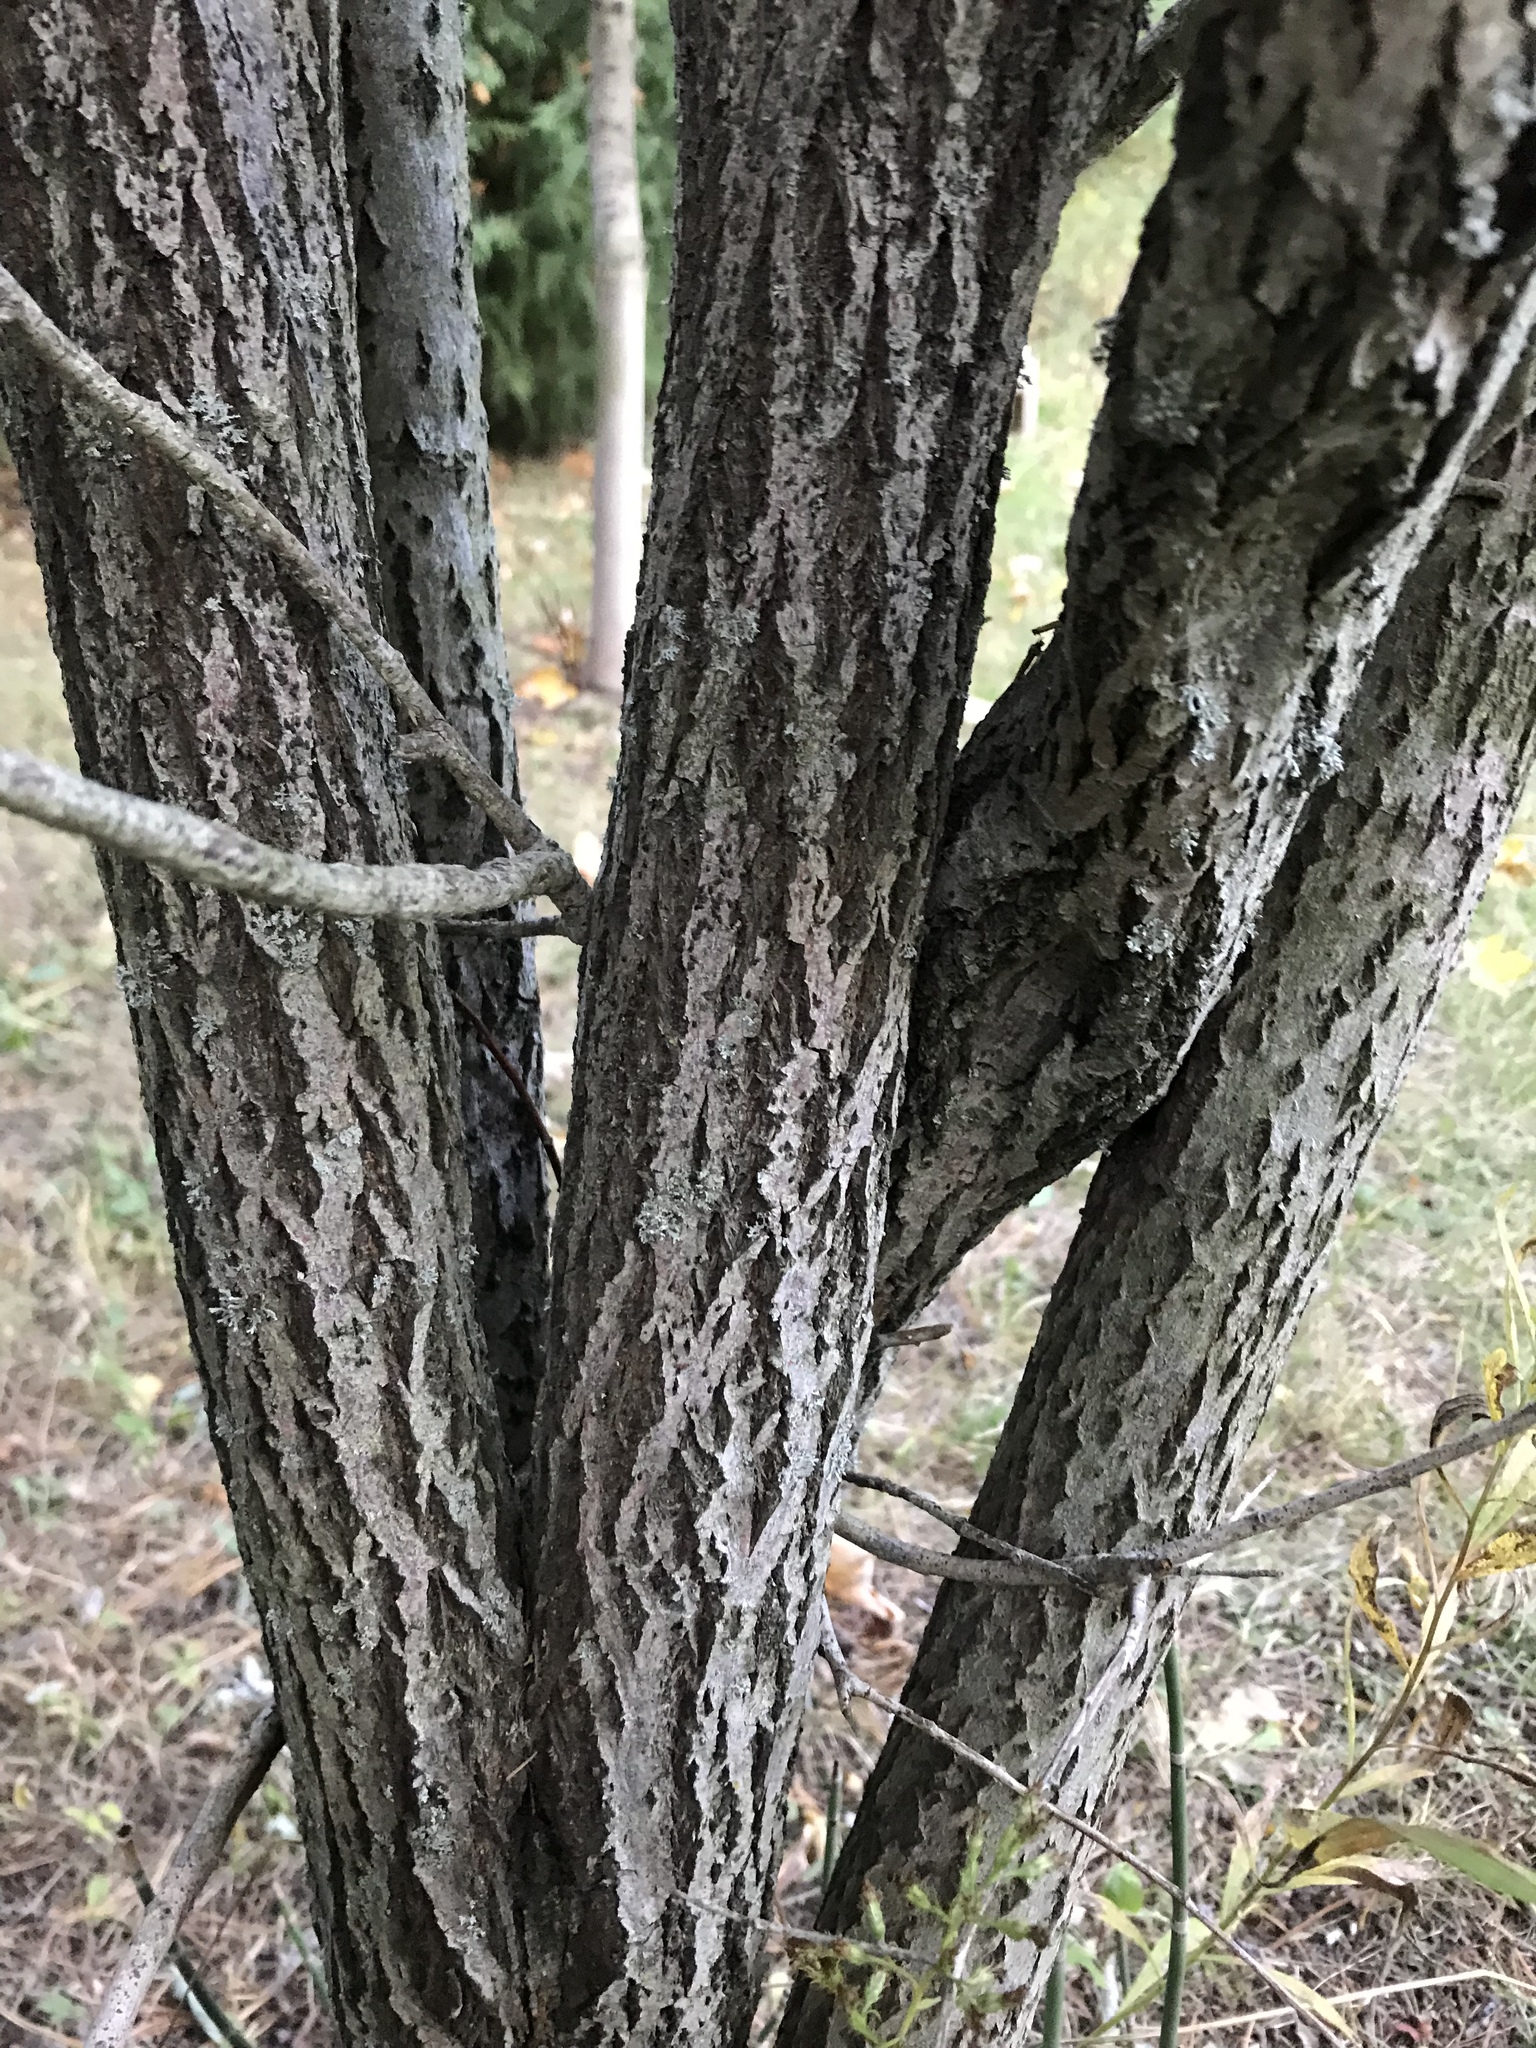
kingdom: Plantae
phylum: Tracheophyta
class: Magnoliopsida
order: Malpighiales
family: Salicaceae
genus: Salix
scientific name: Salix bebbiana
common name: Bebb's willow
